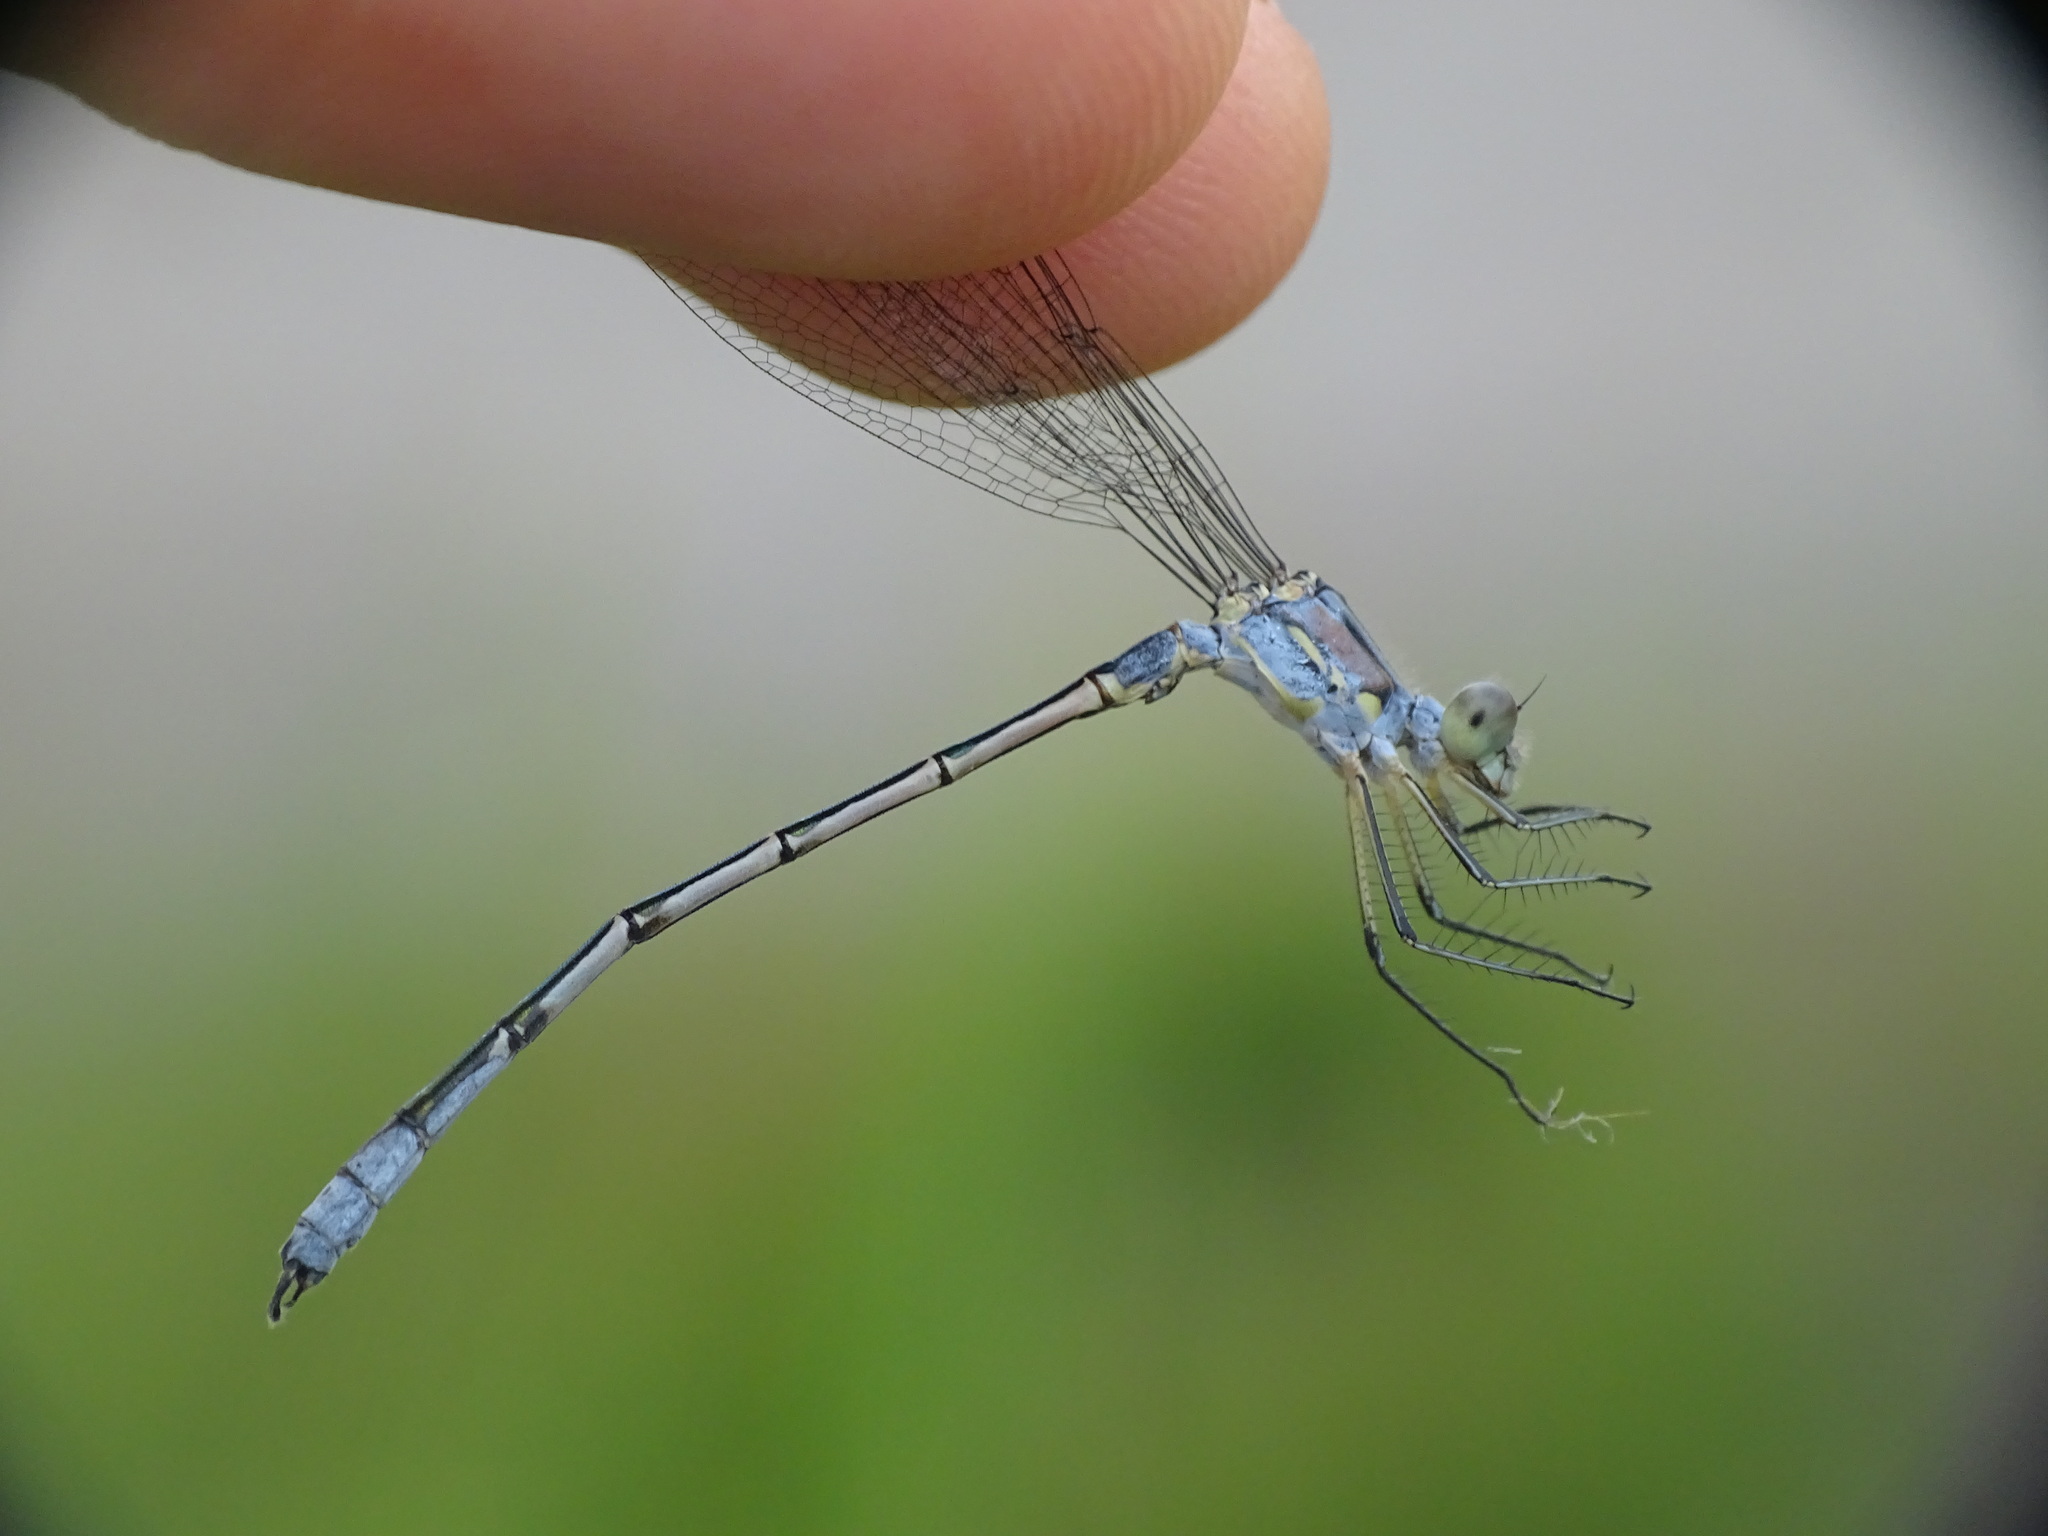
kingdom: Animalia
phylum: Arthropoda
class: Insecta
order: Odonata
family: Lestidae
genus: Lestes
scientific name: Lestes unguiculatus
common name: Lyre-tipped spreadwing
